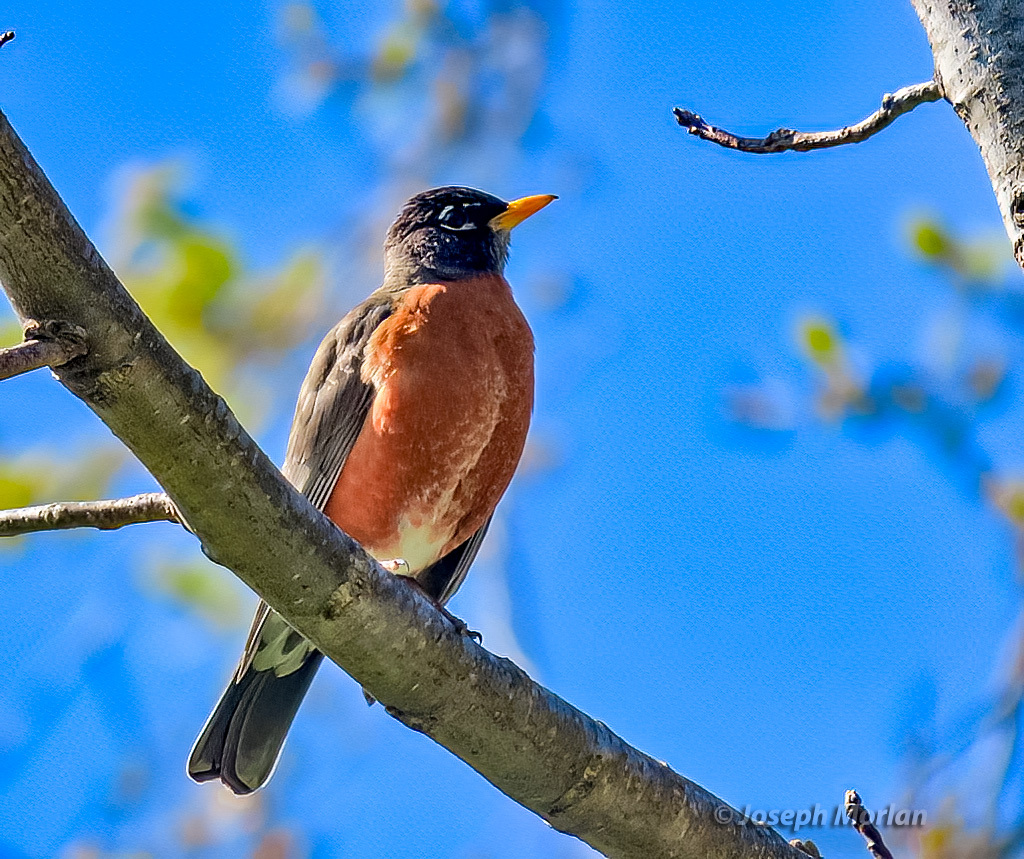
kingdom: Animalia
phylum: Chordata
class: Aves
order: Passeriformes
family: Turdidae
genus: Turdus
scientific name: Turdus migratorius
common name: American robin
